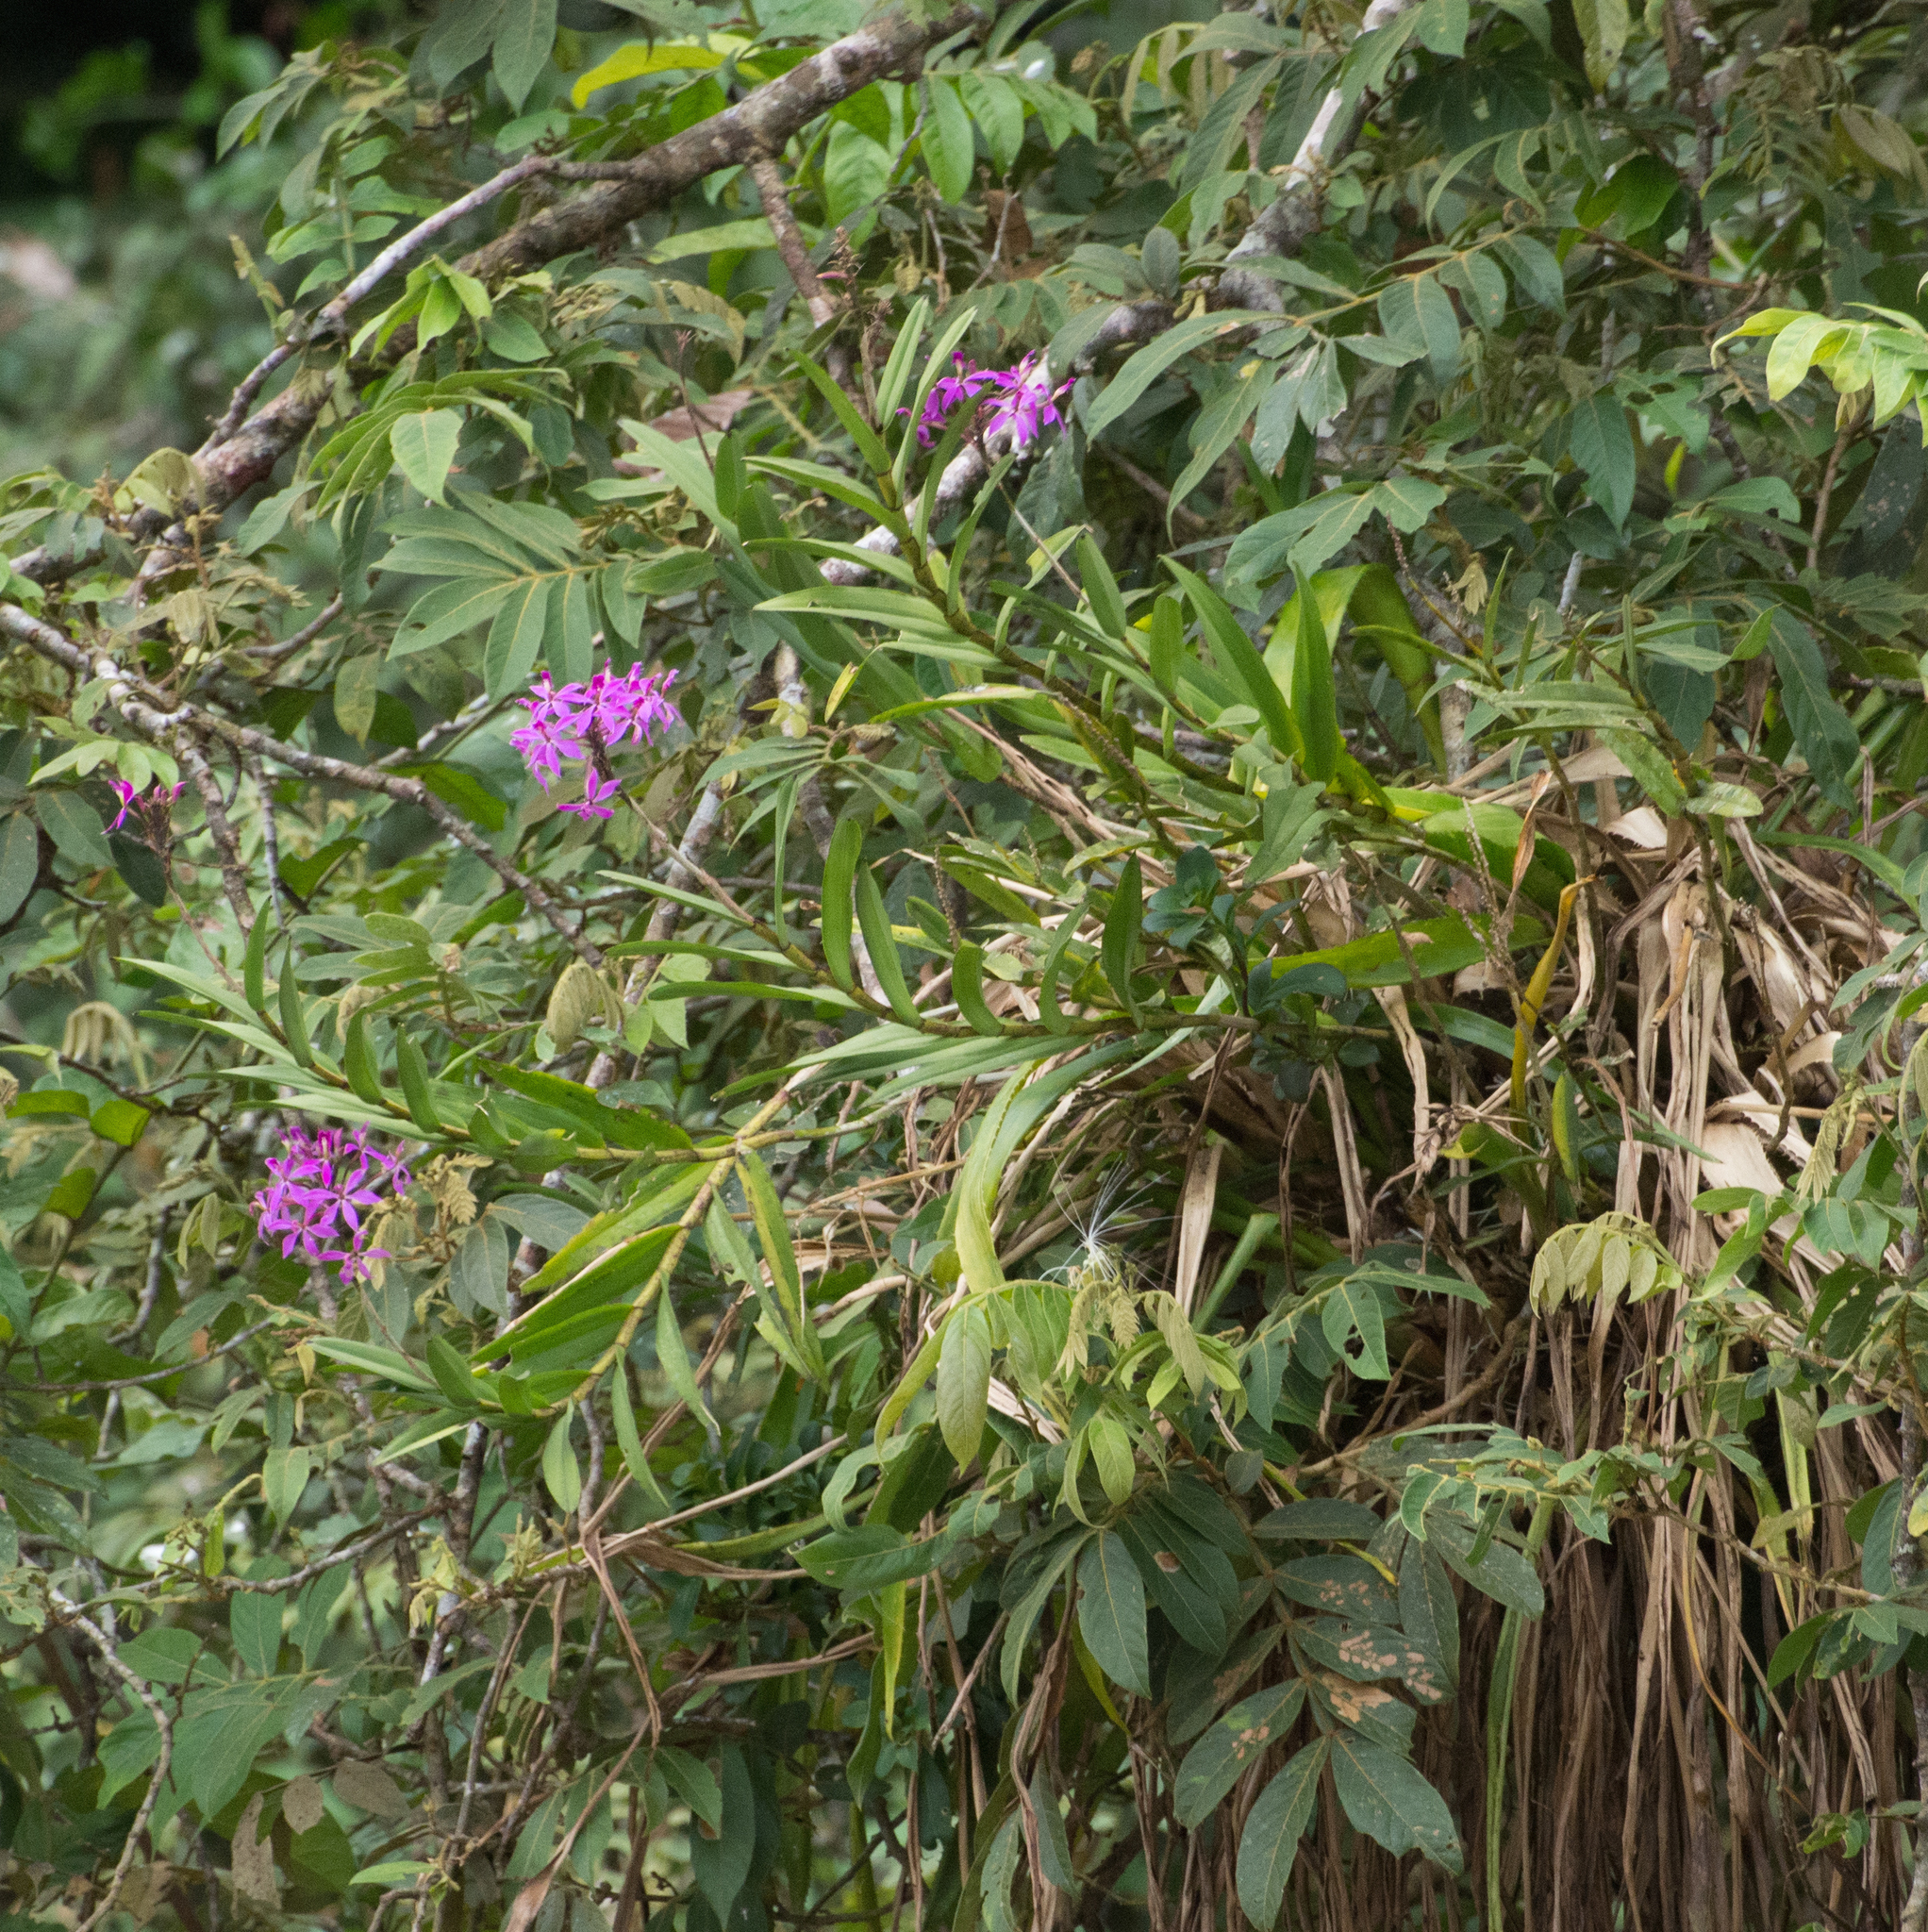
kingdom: Plantae
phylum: Tracheophyta
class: Liliopsida
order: Asparagales
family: Orchidaceae
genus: Epidendrum
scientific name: Epidendrum flexuosum
